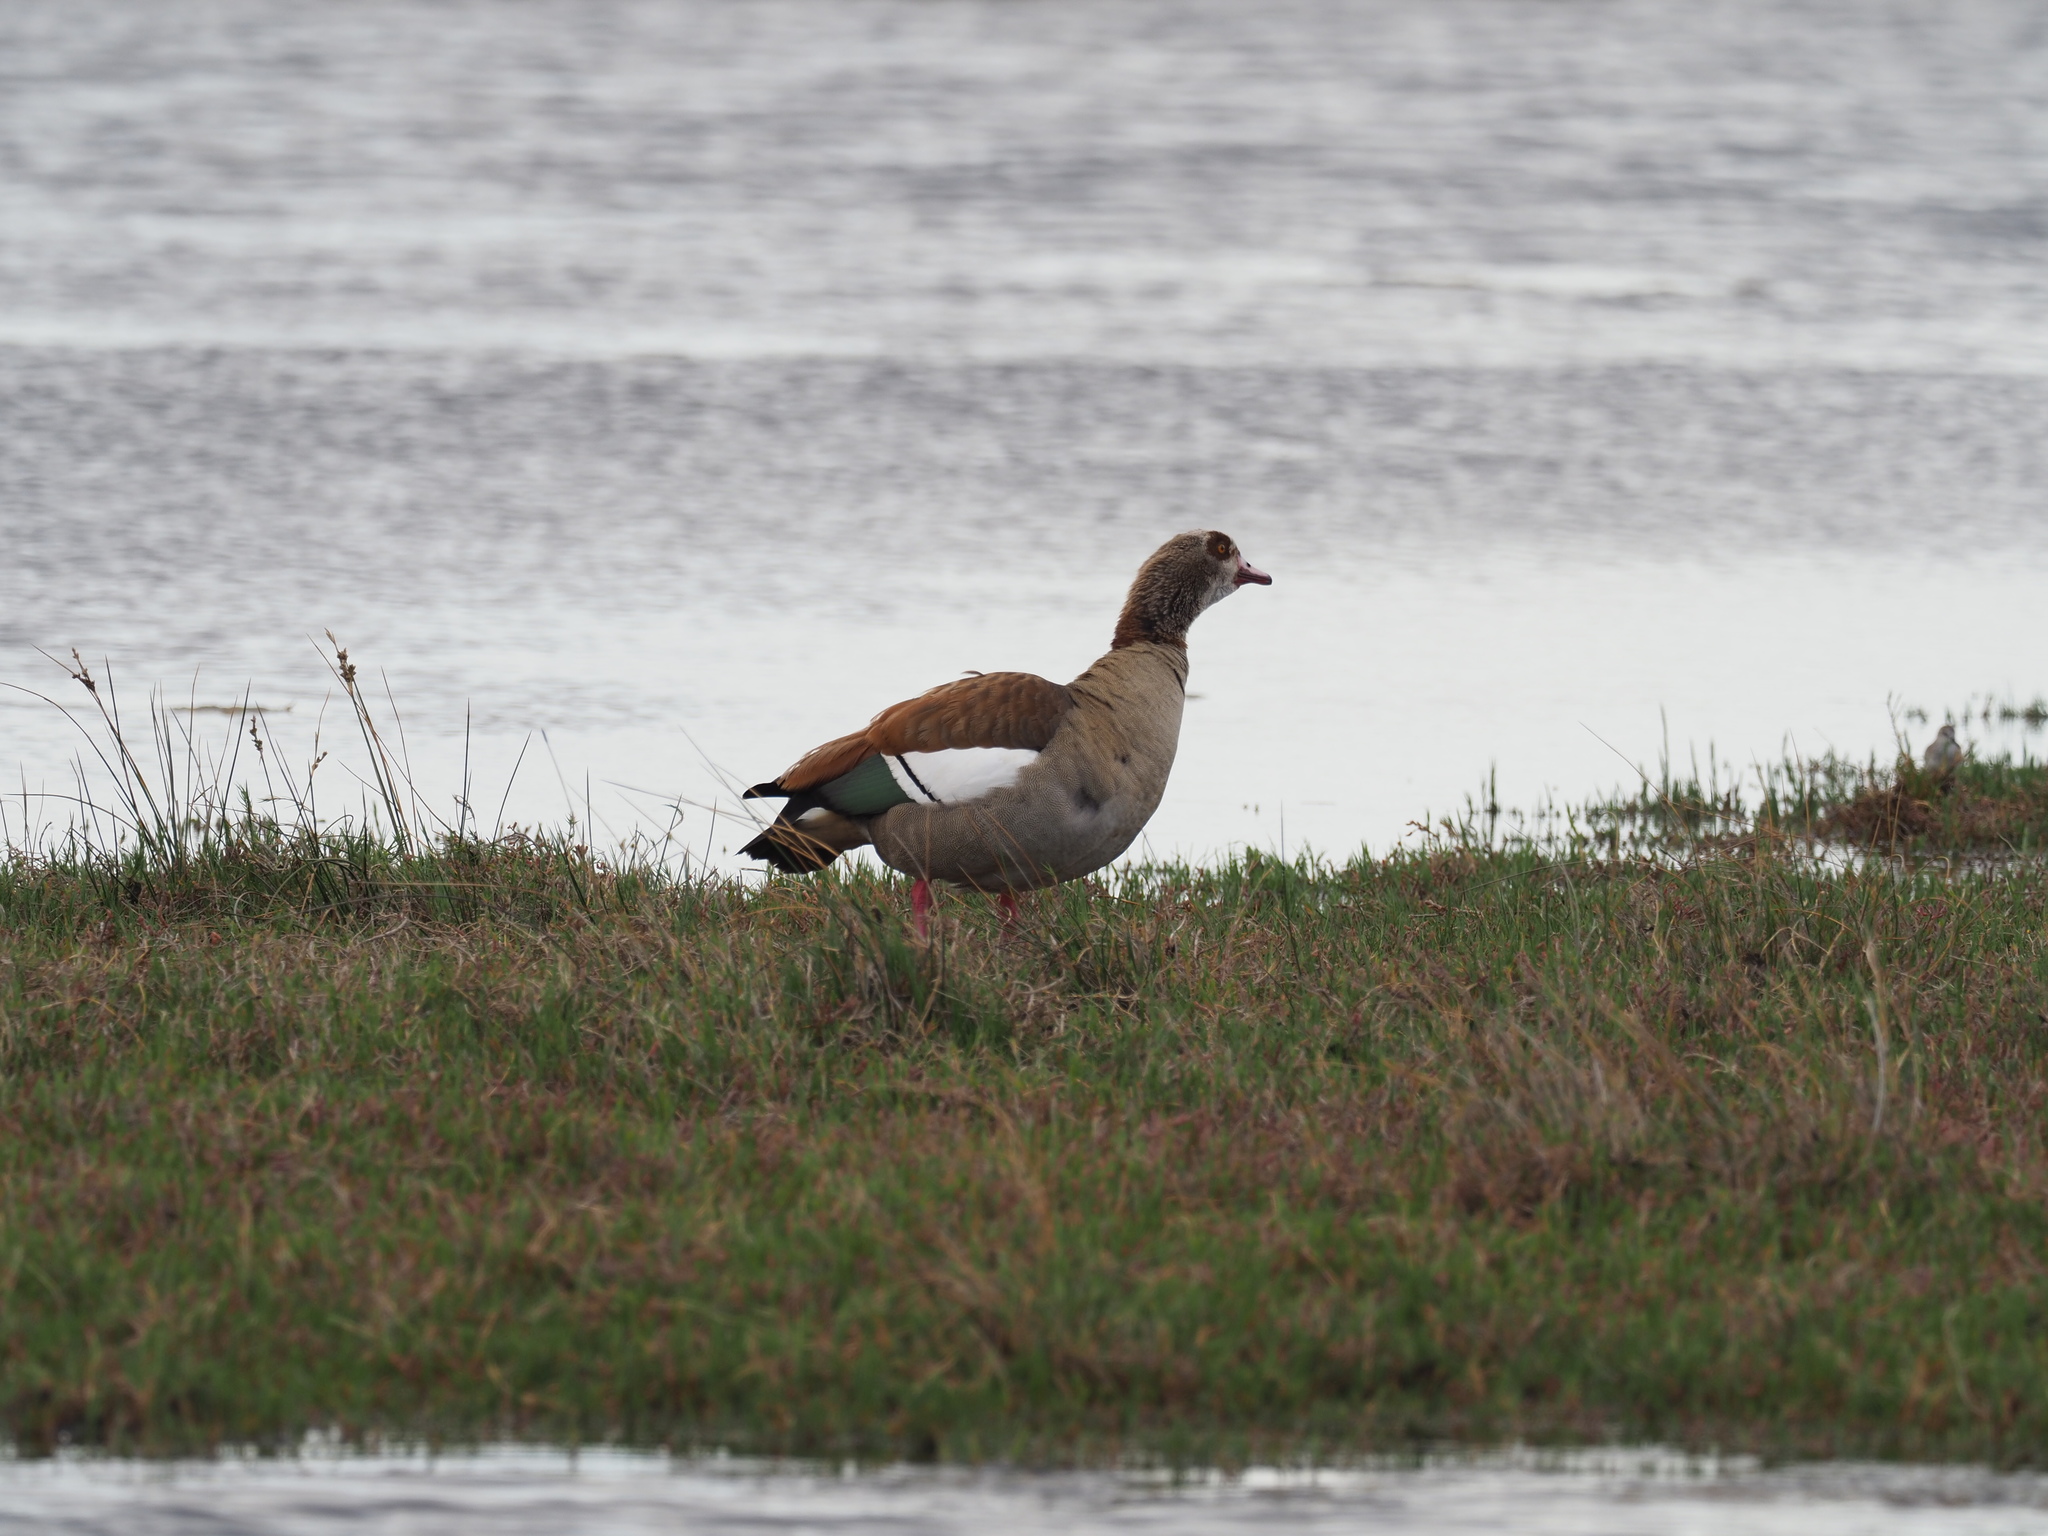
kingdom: Animalia
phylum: Chordata
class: Aves
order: Anseriformes
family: Anatidae
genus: Alopochen
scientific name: Alopochen aegyptiaca
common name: Egyptian goose
